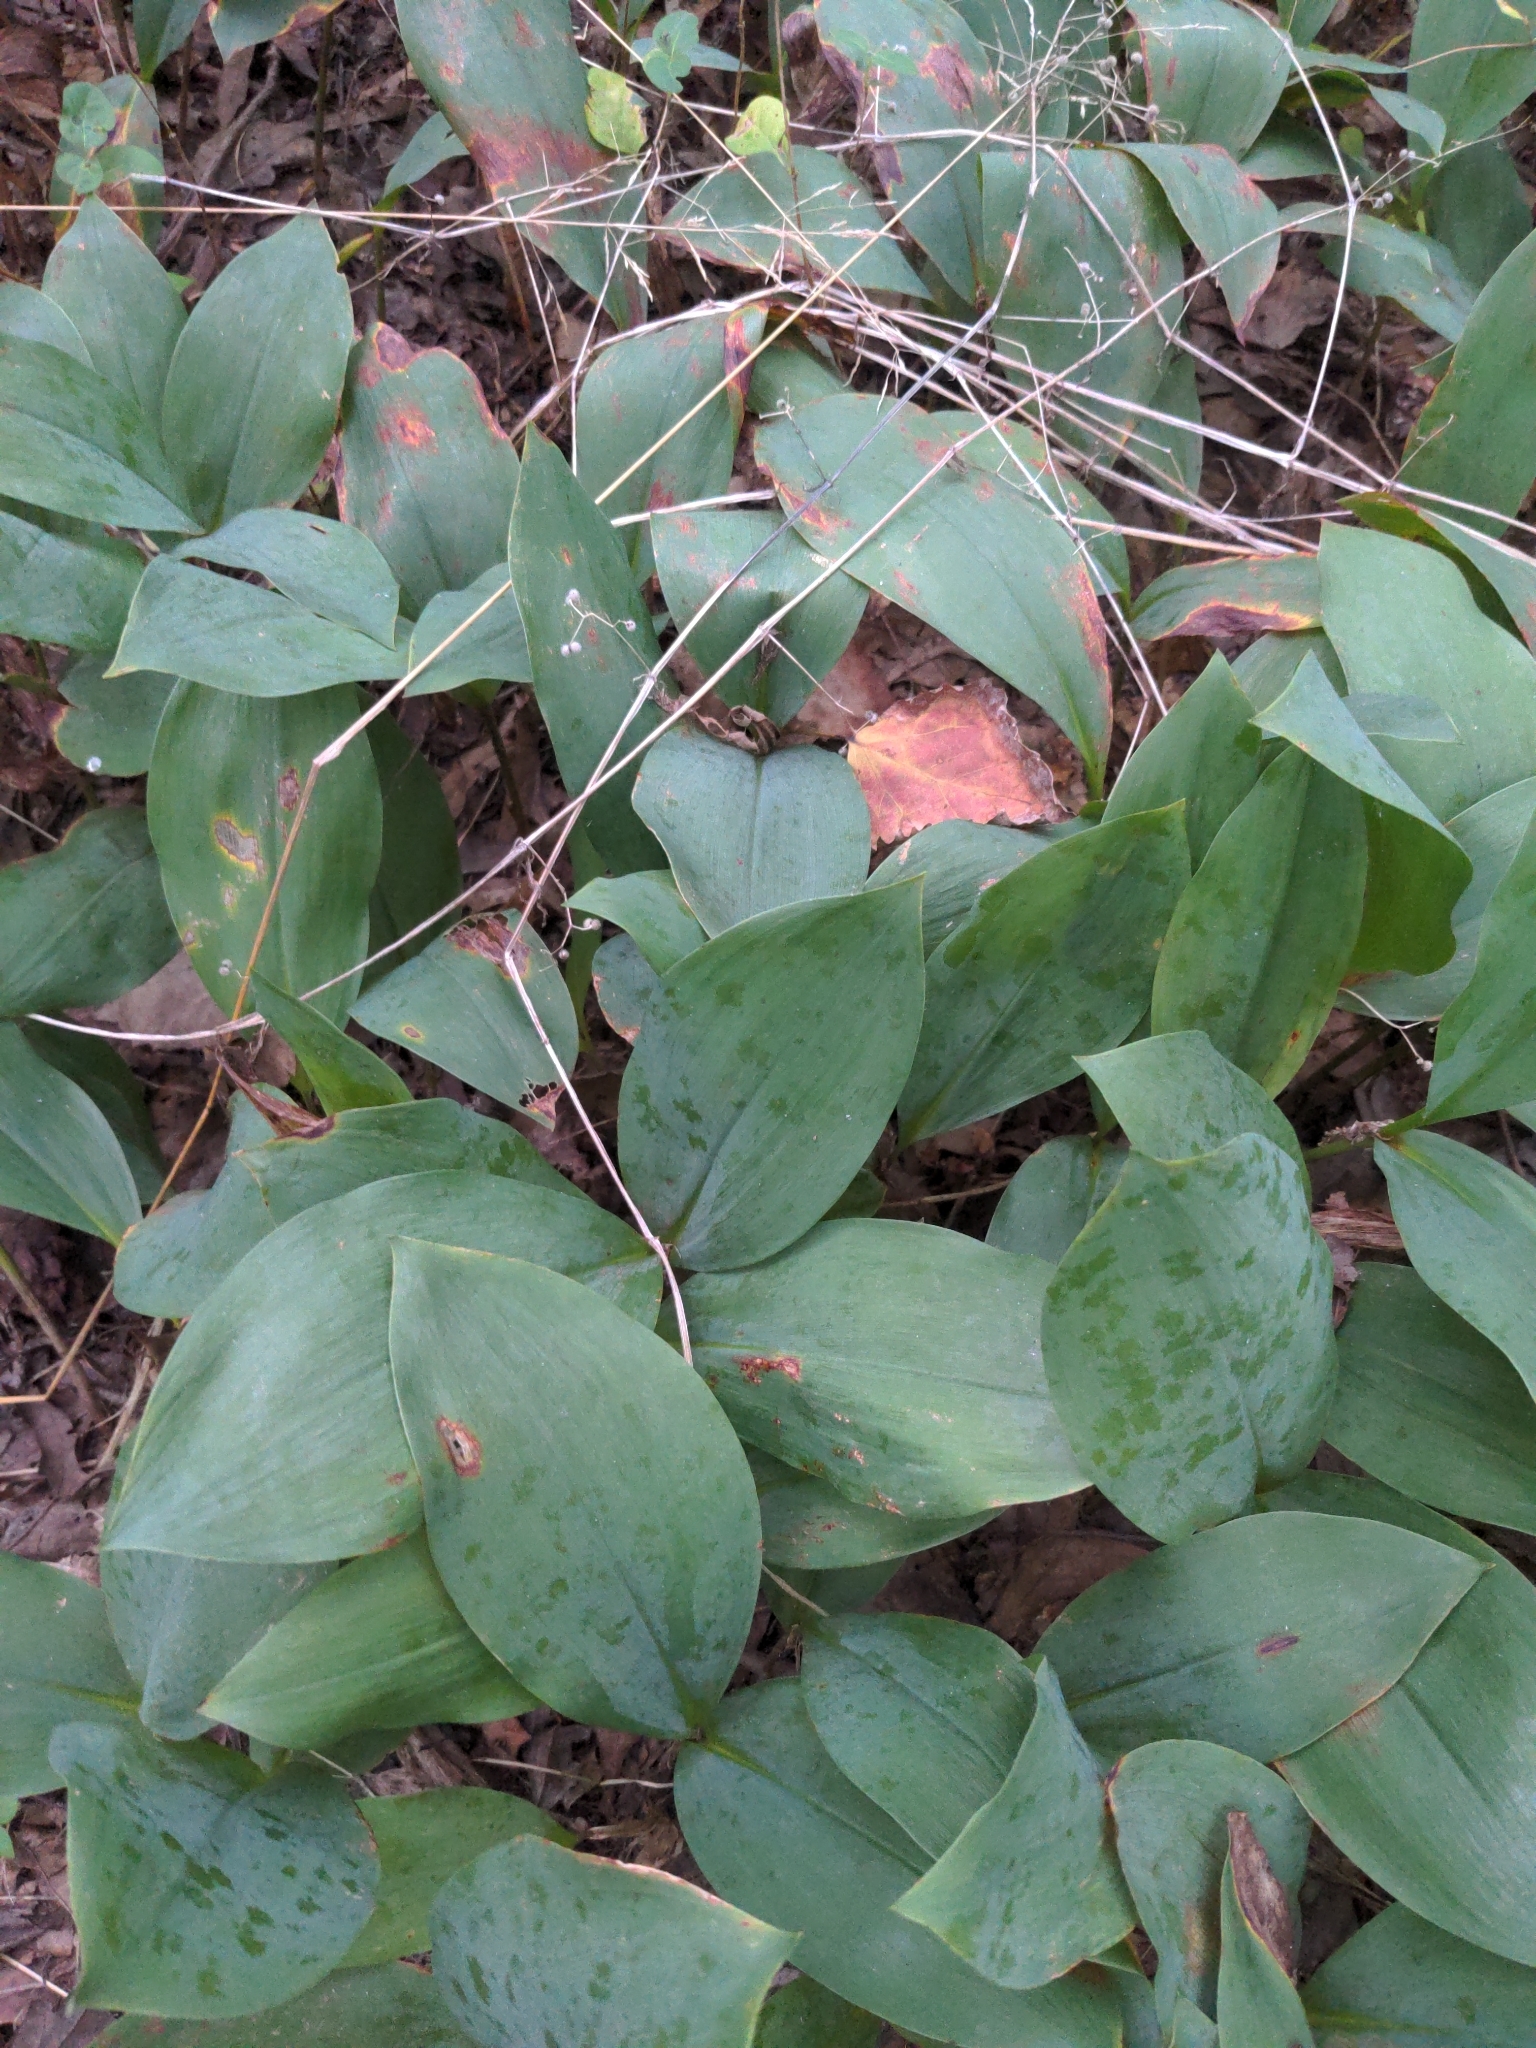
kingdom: Plantae
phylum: Tracheophyta
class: Liliopsida
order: Asparagales
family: Asparagaceae
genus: Convallaria
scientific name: Convallaria majalis
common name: Lily-of-the-valley
